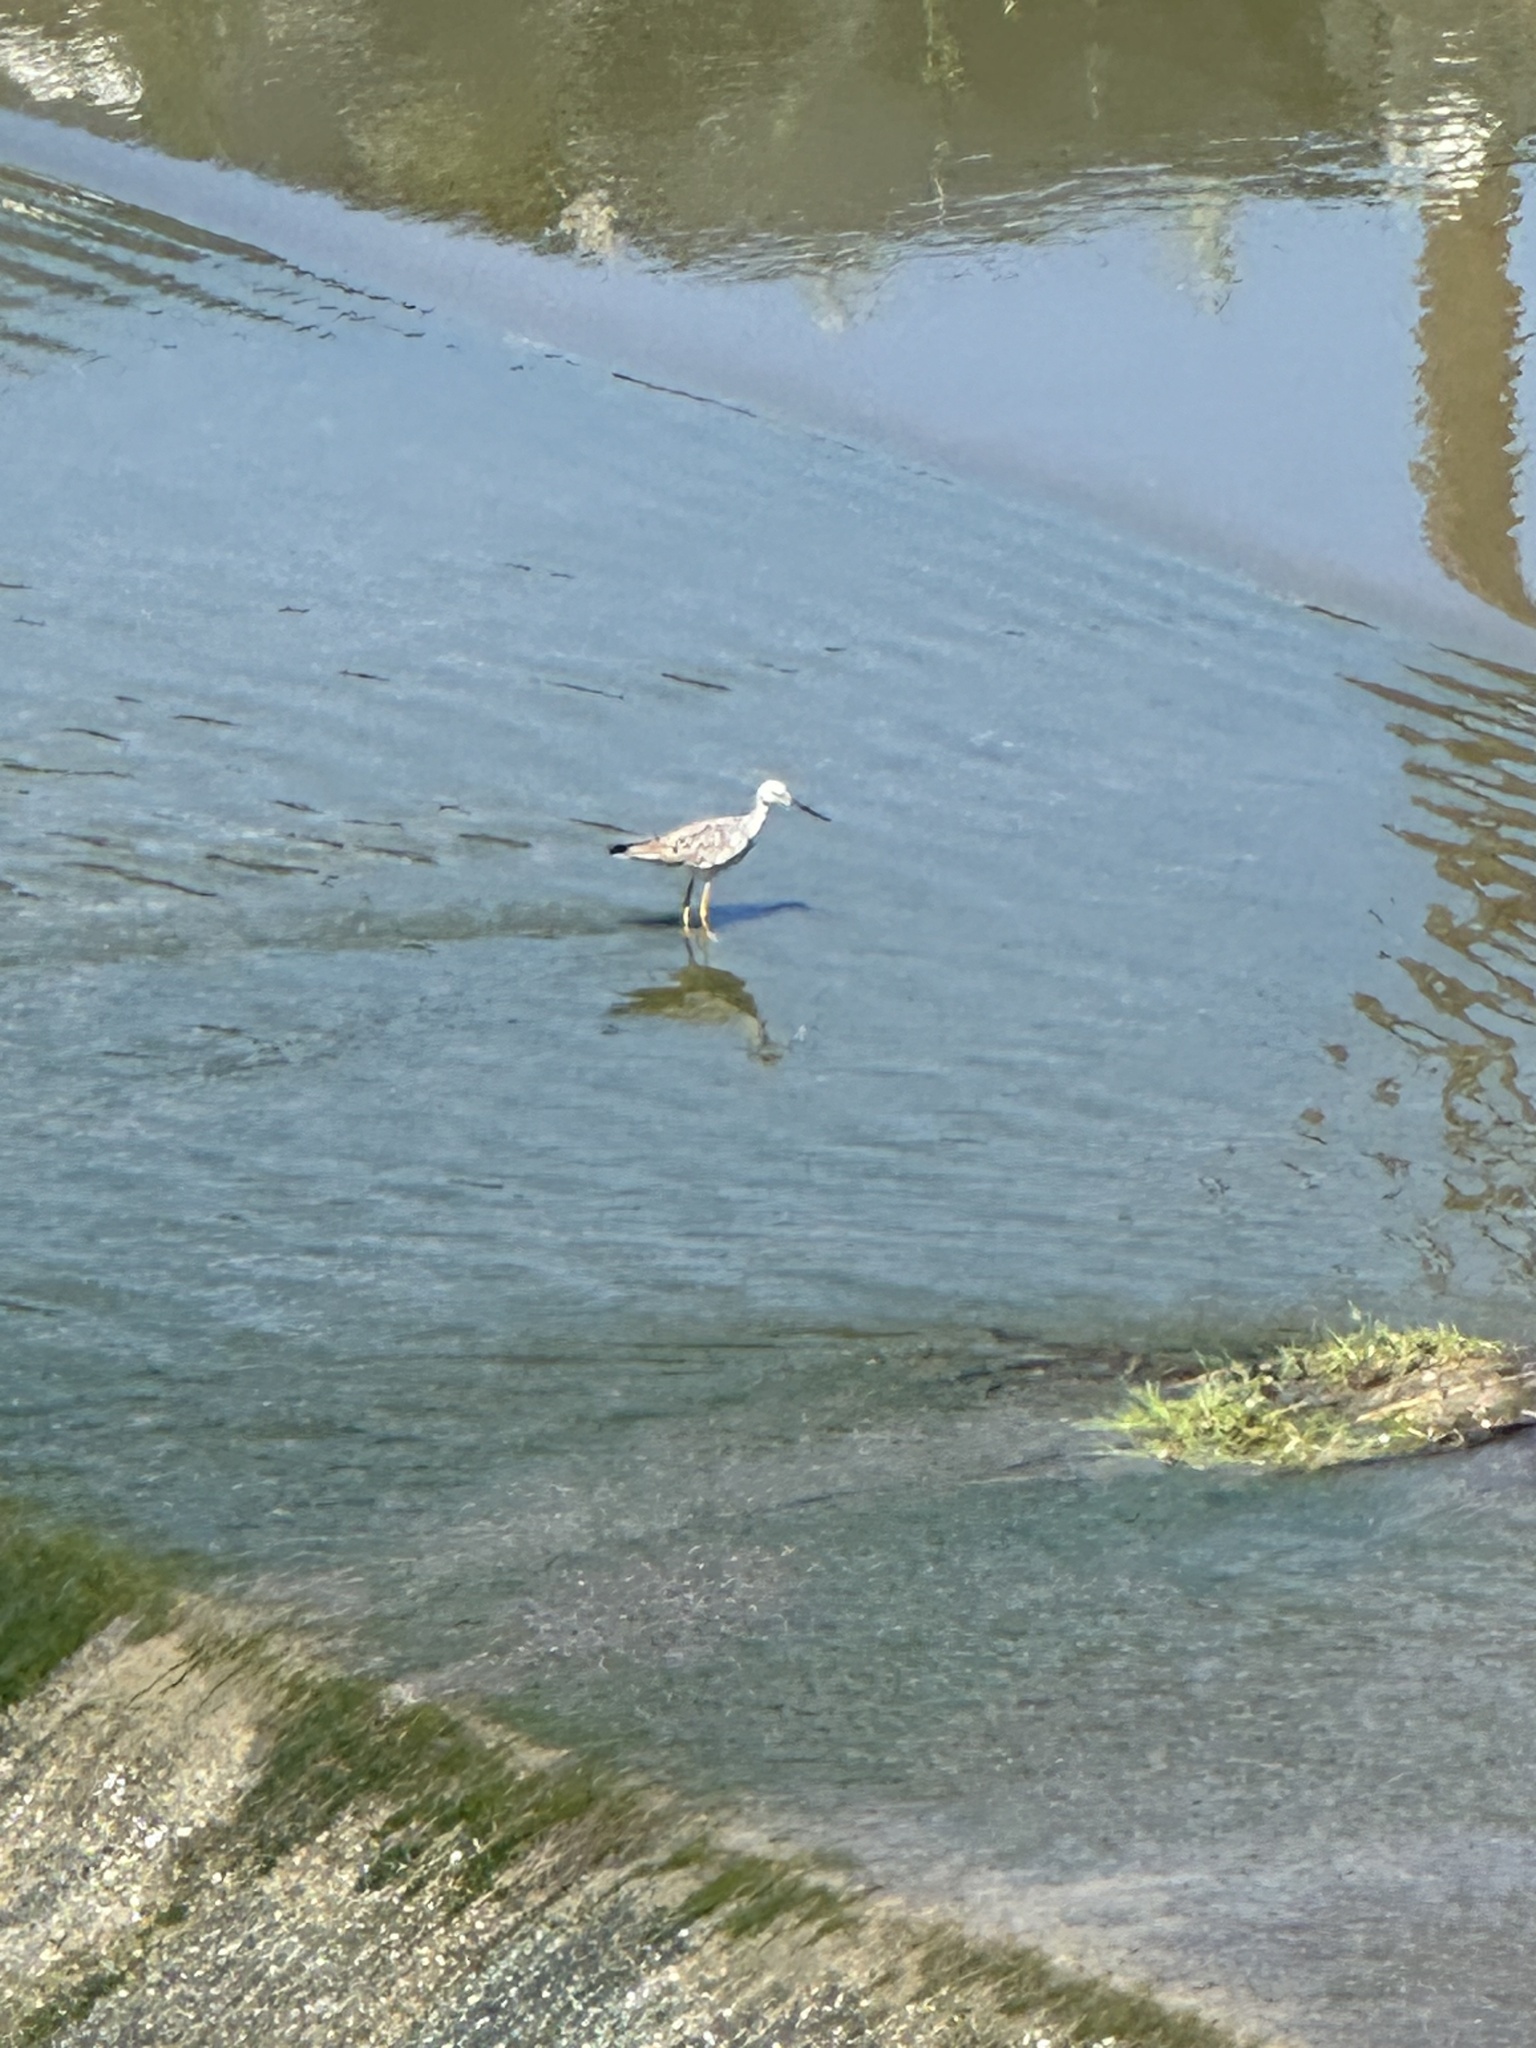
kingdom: Animalia
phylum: Chordata
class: Aves
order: Charadriiformes
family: Scolopacidae
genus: Tringa
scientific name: Tringa melanoleuca
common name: Greater yellowlegs
